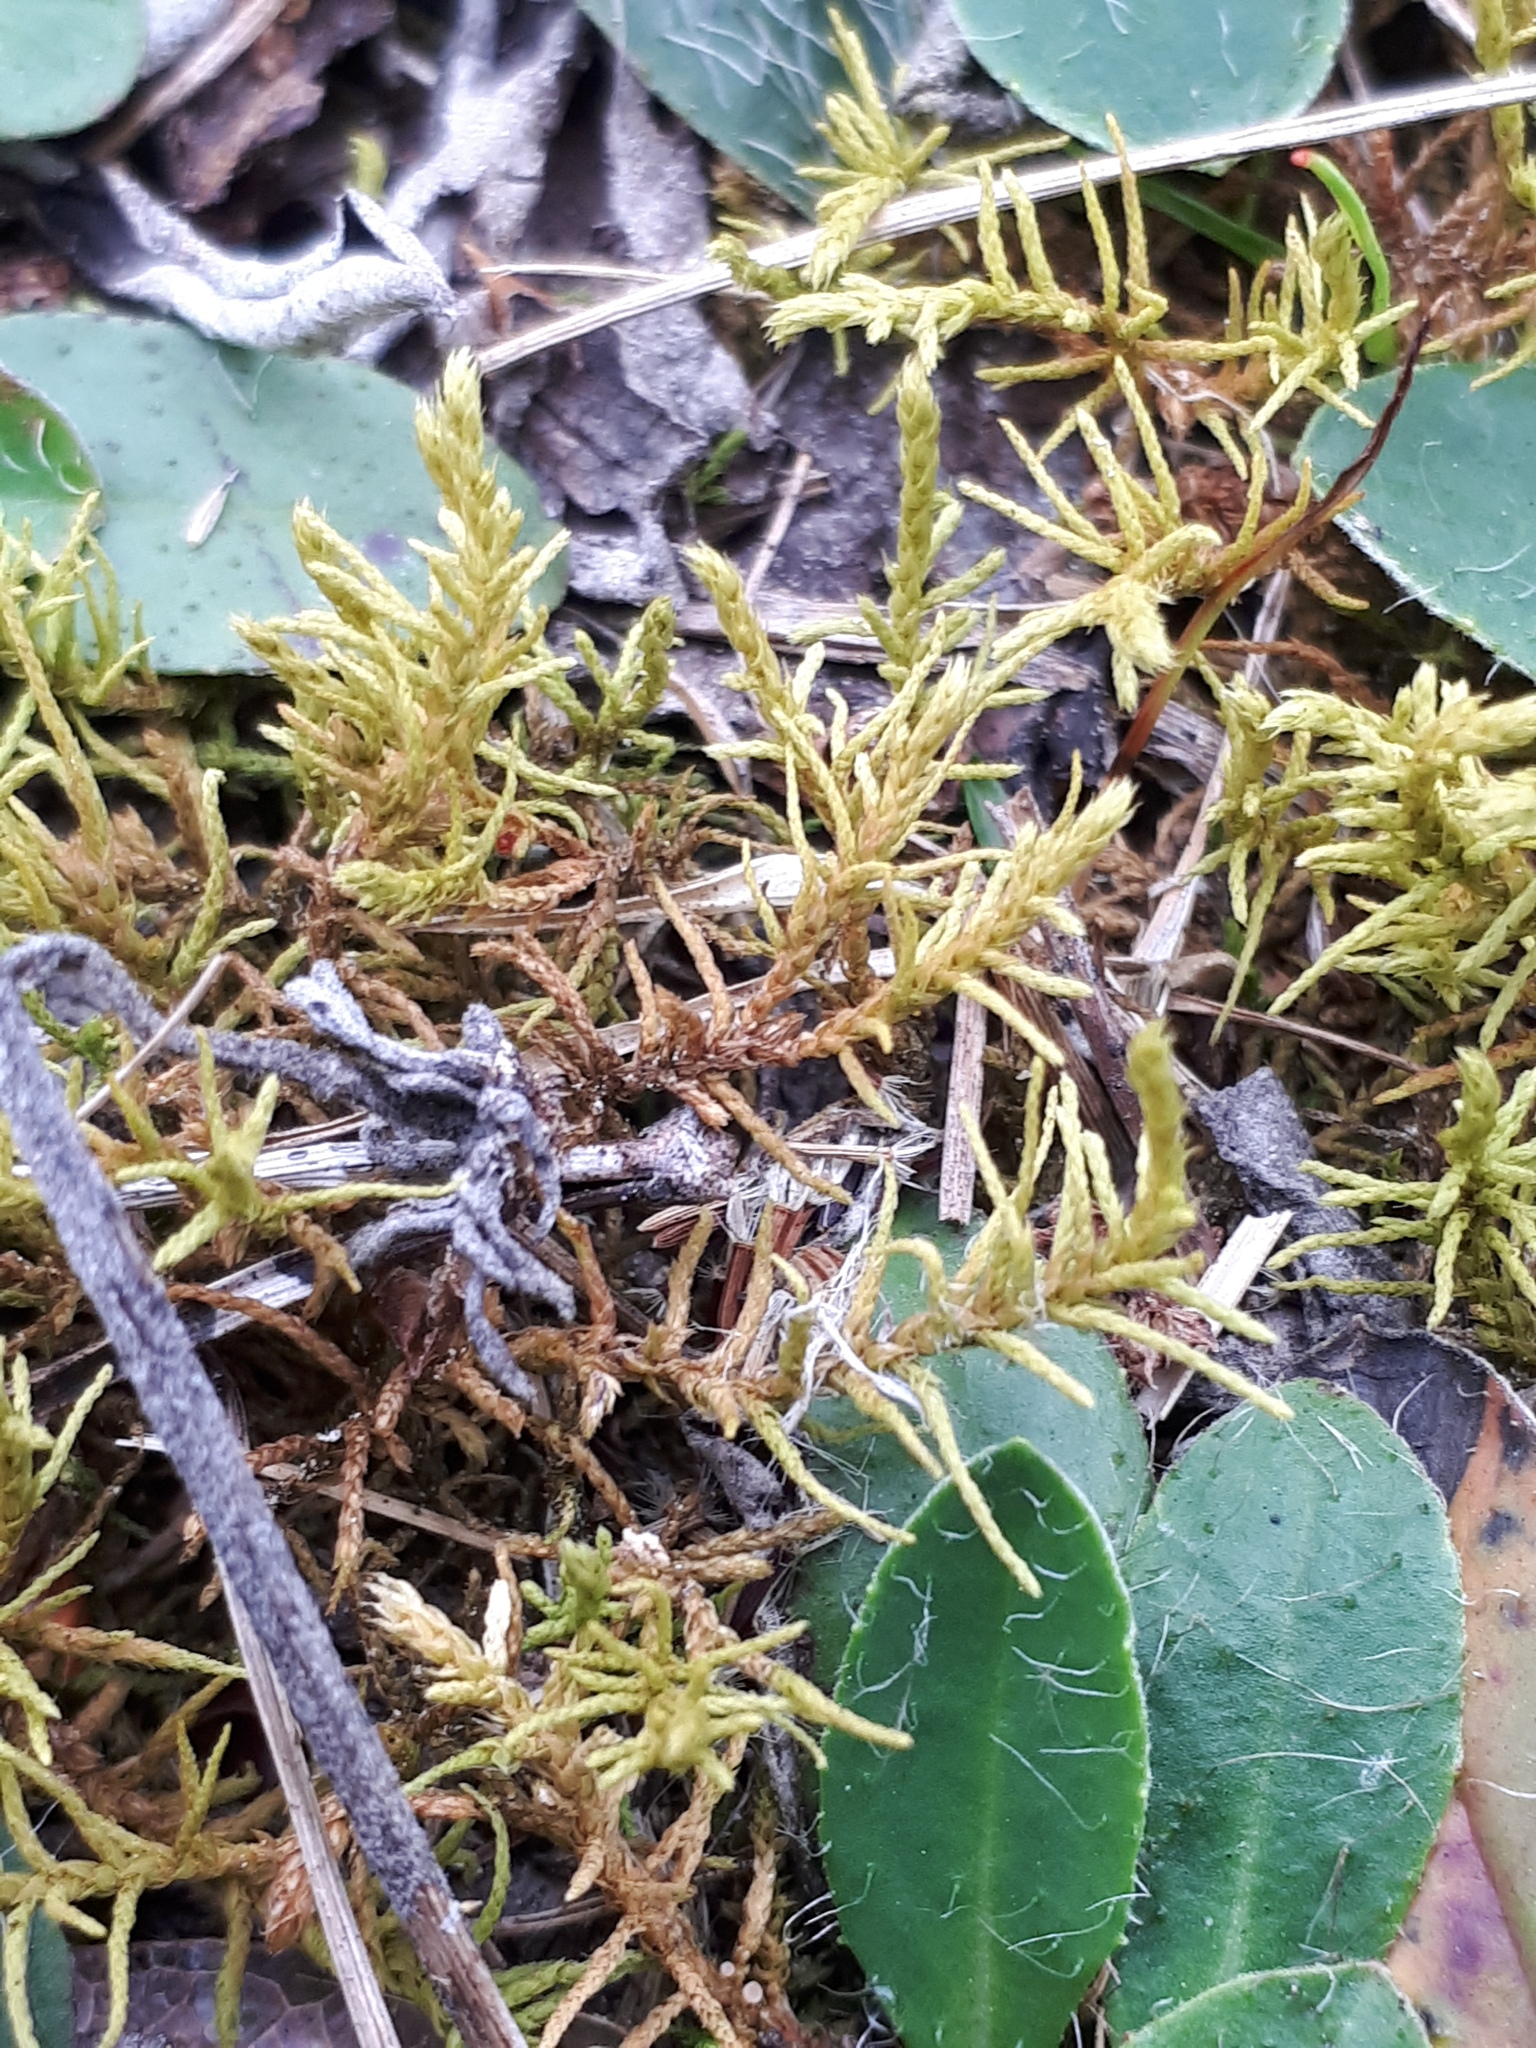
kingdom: Plantae
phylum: Bryophyta
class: Bryopsida
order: Hypnales
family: Thuidiaceae
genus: Abietinella
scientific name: Abietinella abietina
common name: Wiry fern moss
